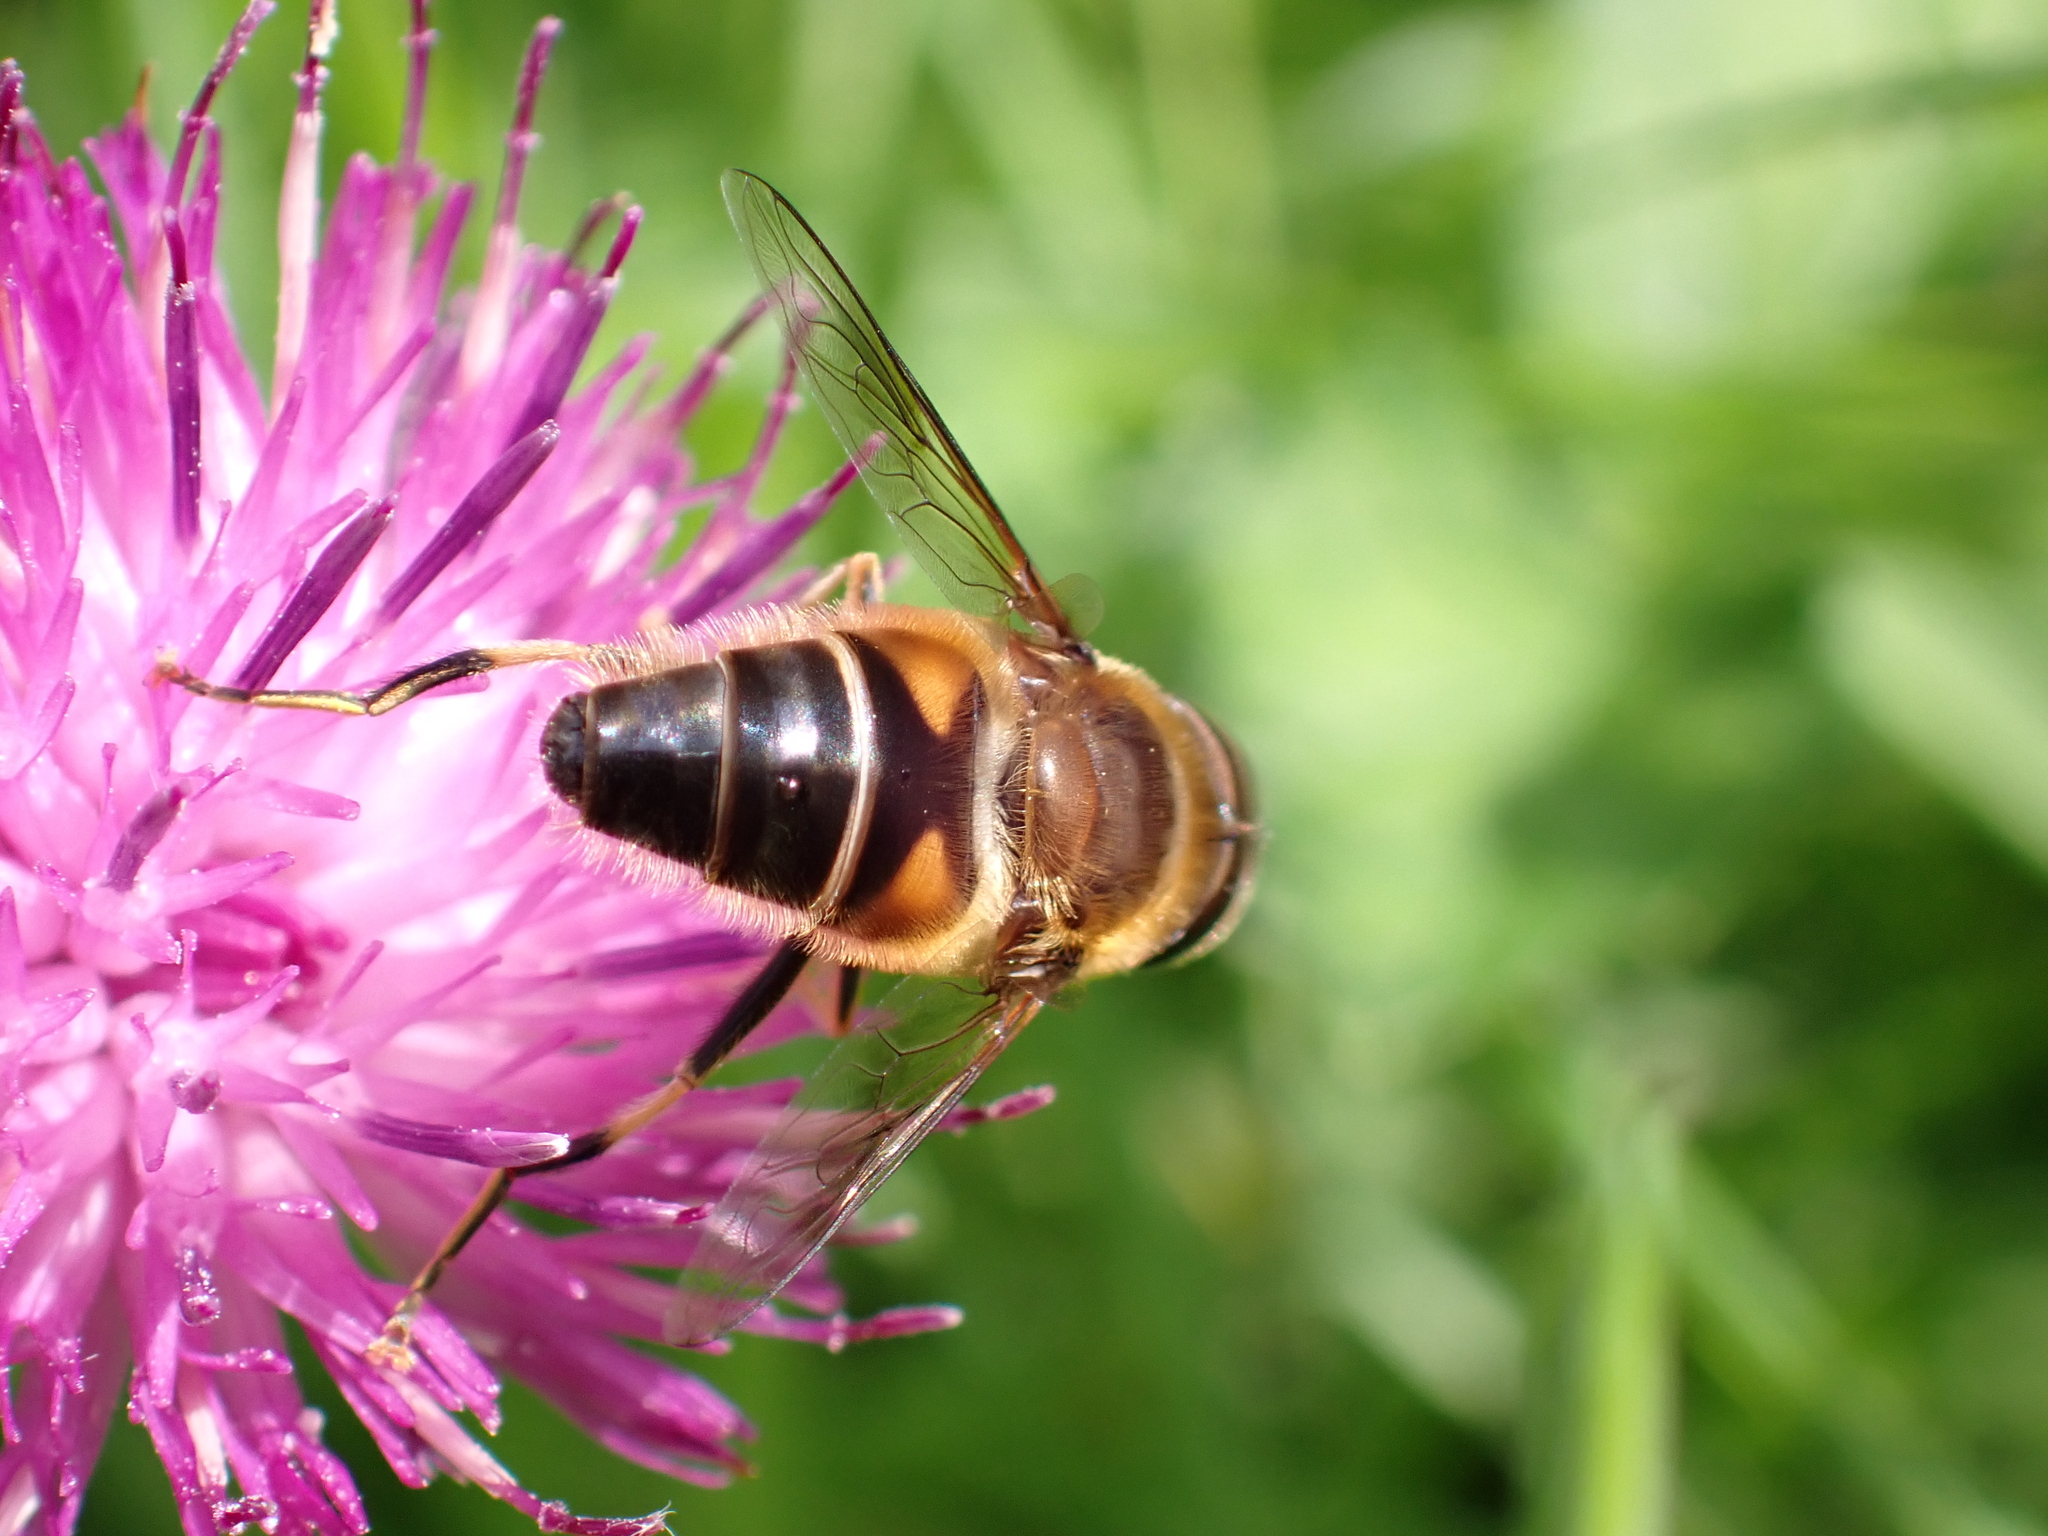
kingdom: Animalia
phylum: Arthropoda
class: Insecta
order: Diptera
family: Syrphidae
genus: Eristalis
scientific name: Eristalis pertinax
